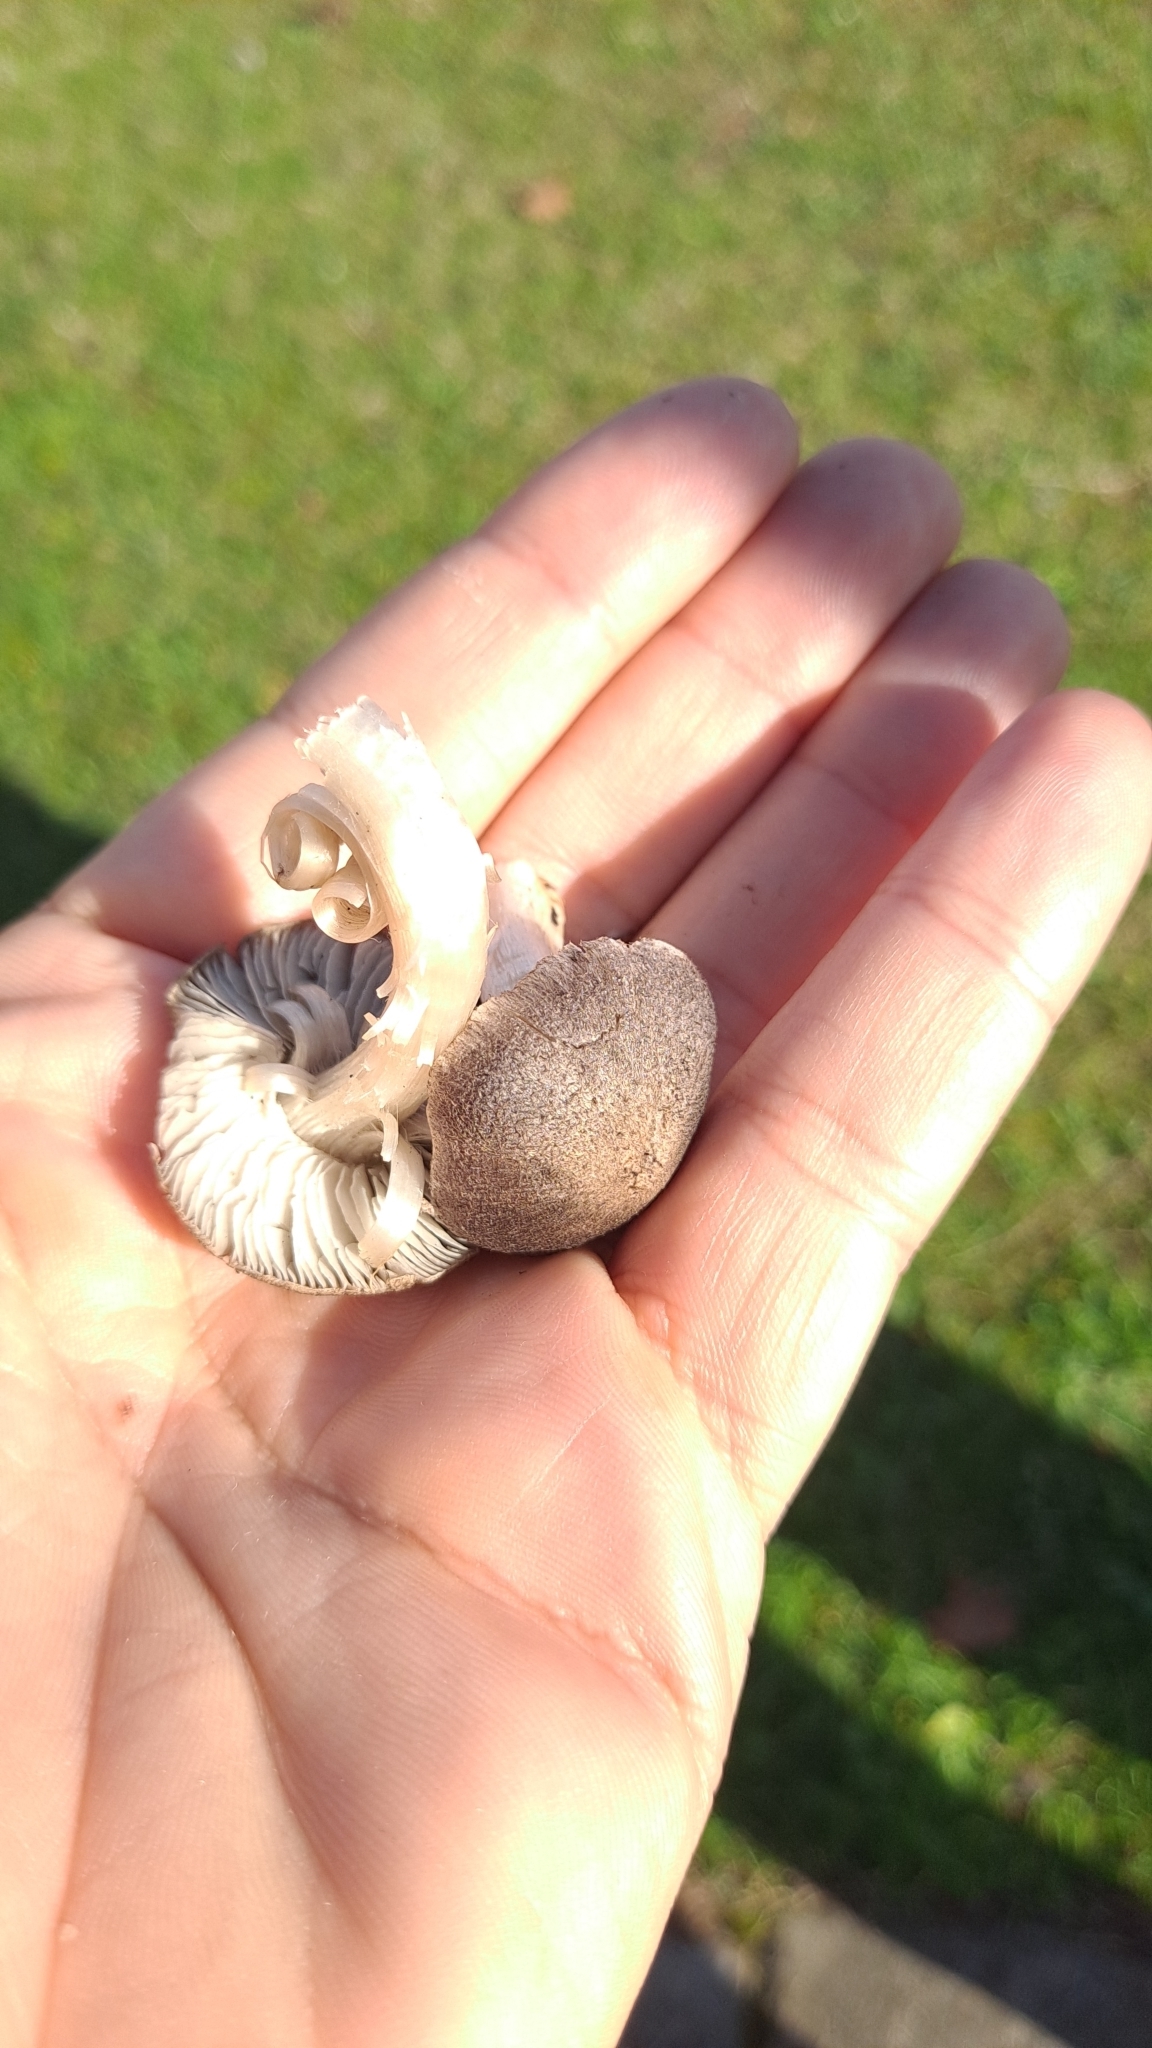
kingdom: Fungi
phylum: Basidiomycota
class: Agaricomycetes
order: Agaricales
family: Tricholomataceae
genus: Tricholoma
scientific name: Tricholoma terreum
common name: Grey knight
